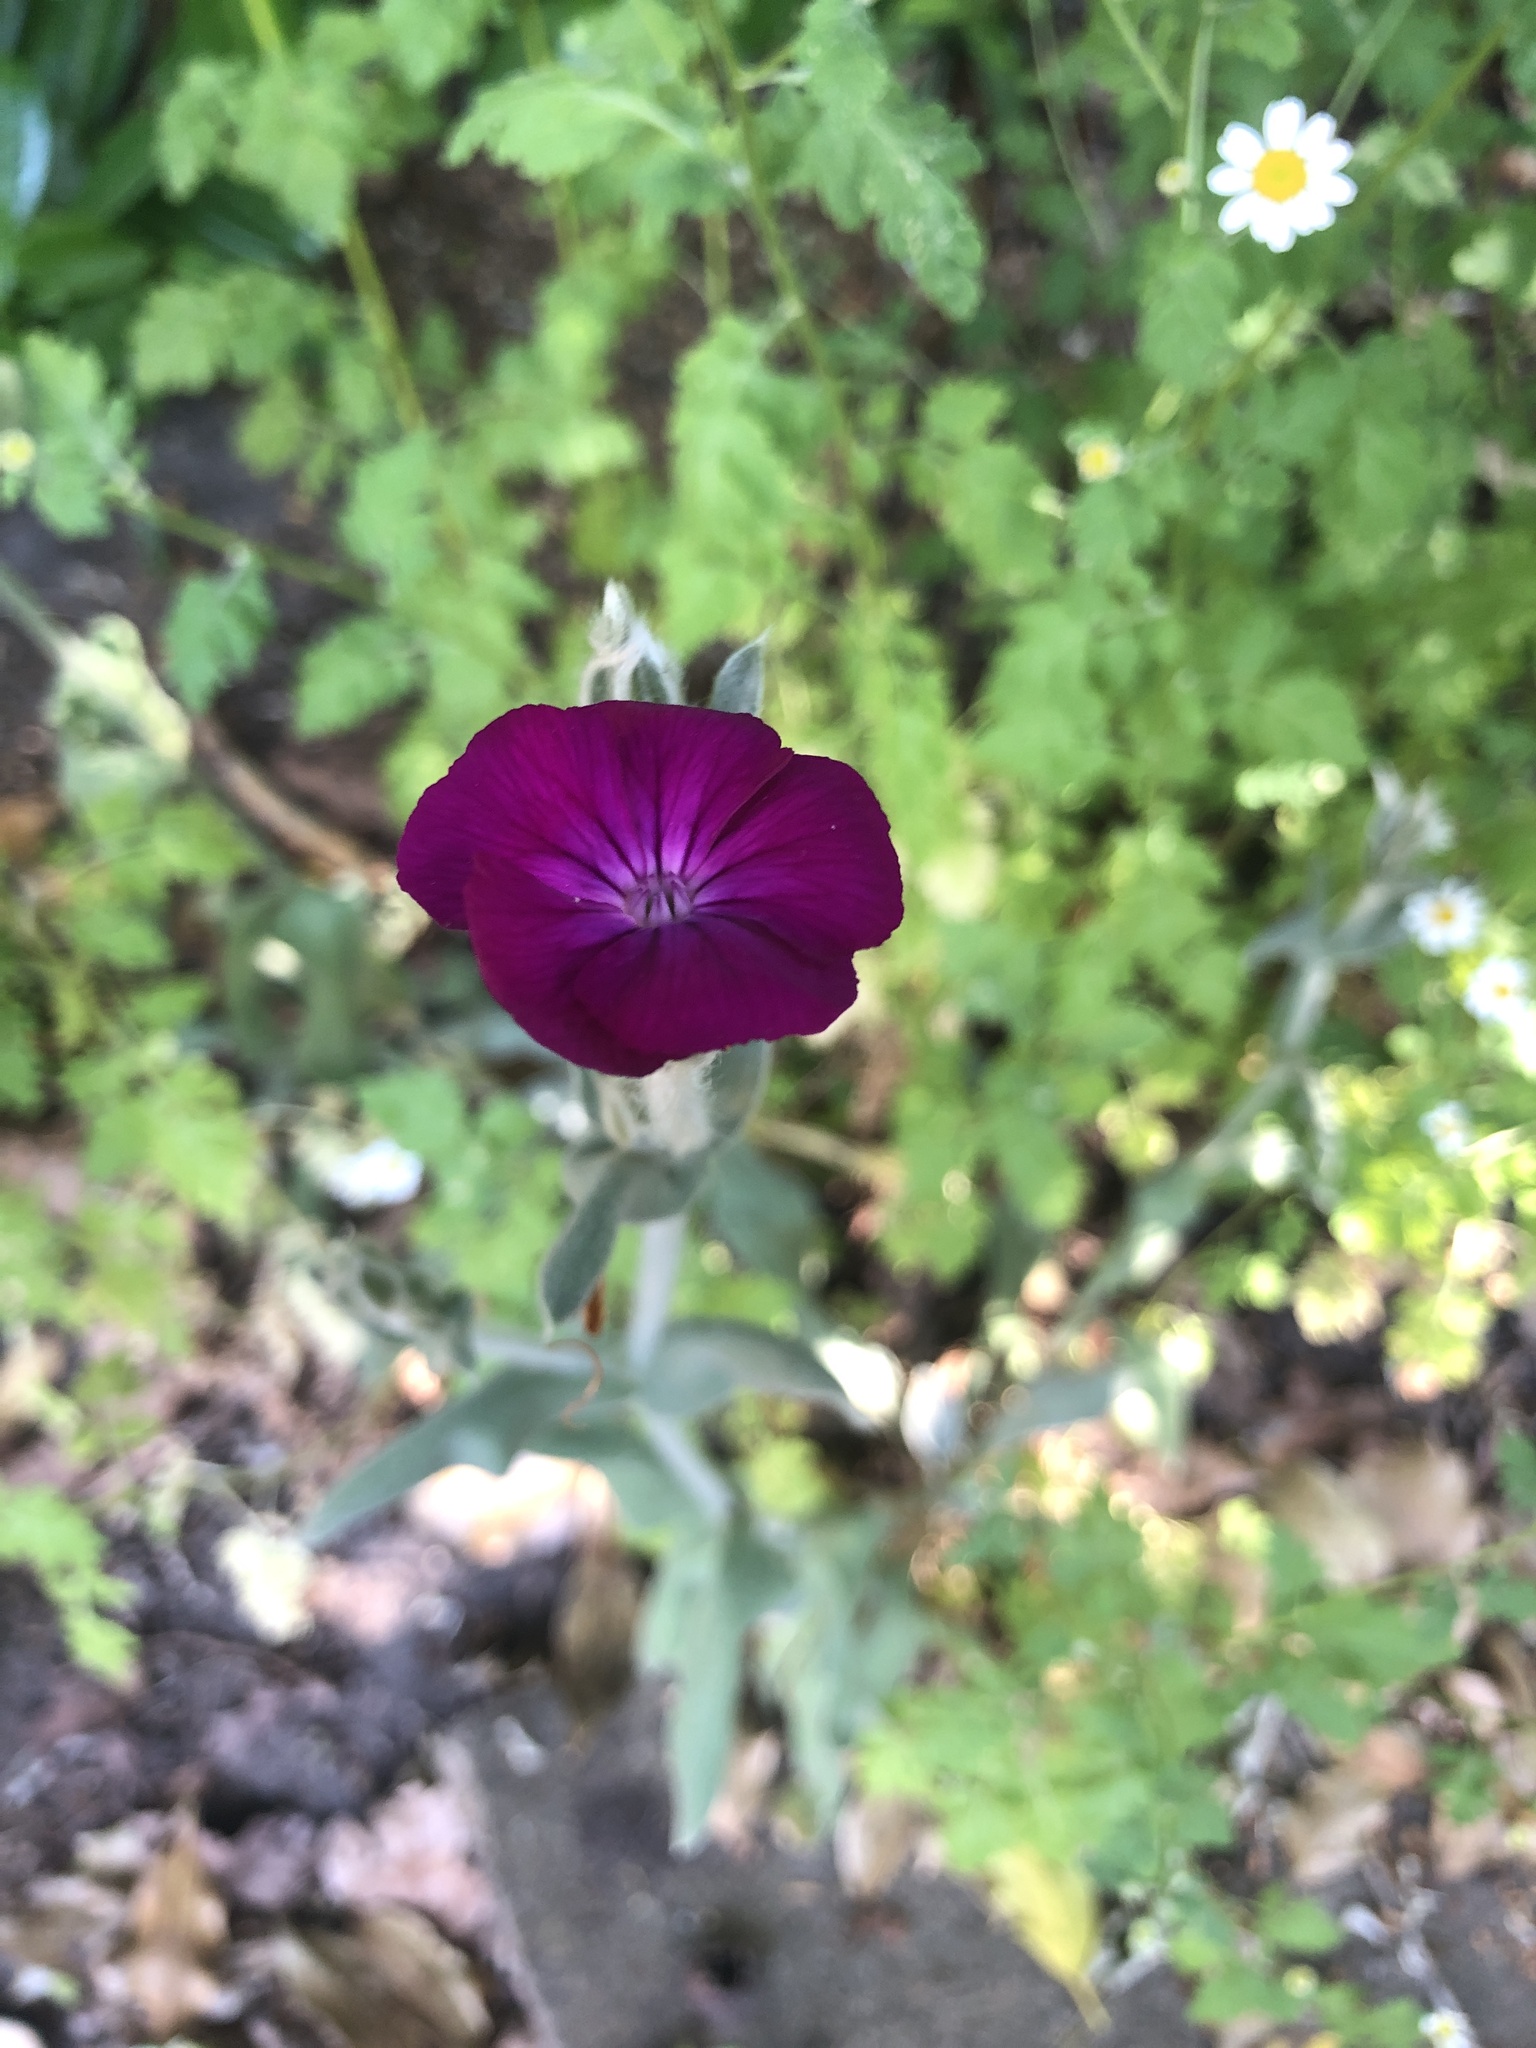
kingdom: Plantae
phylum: Tracheophyta
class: Magnoliopsida
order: Caryophyllales
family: Caryophyllaceae
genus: Silene
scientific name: Silene coronaria
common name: Rose campion
